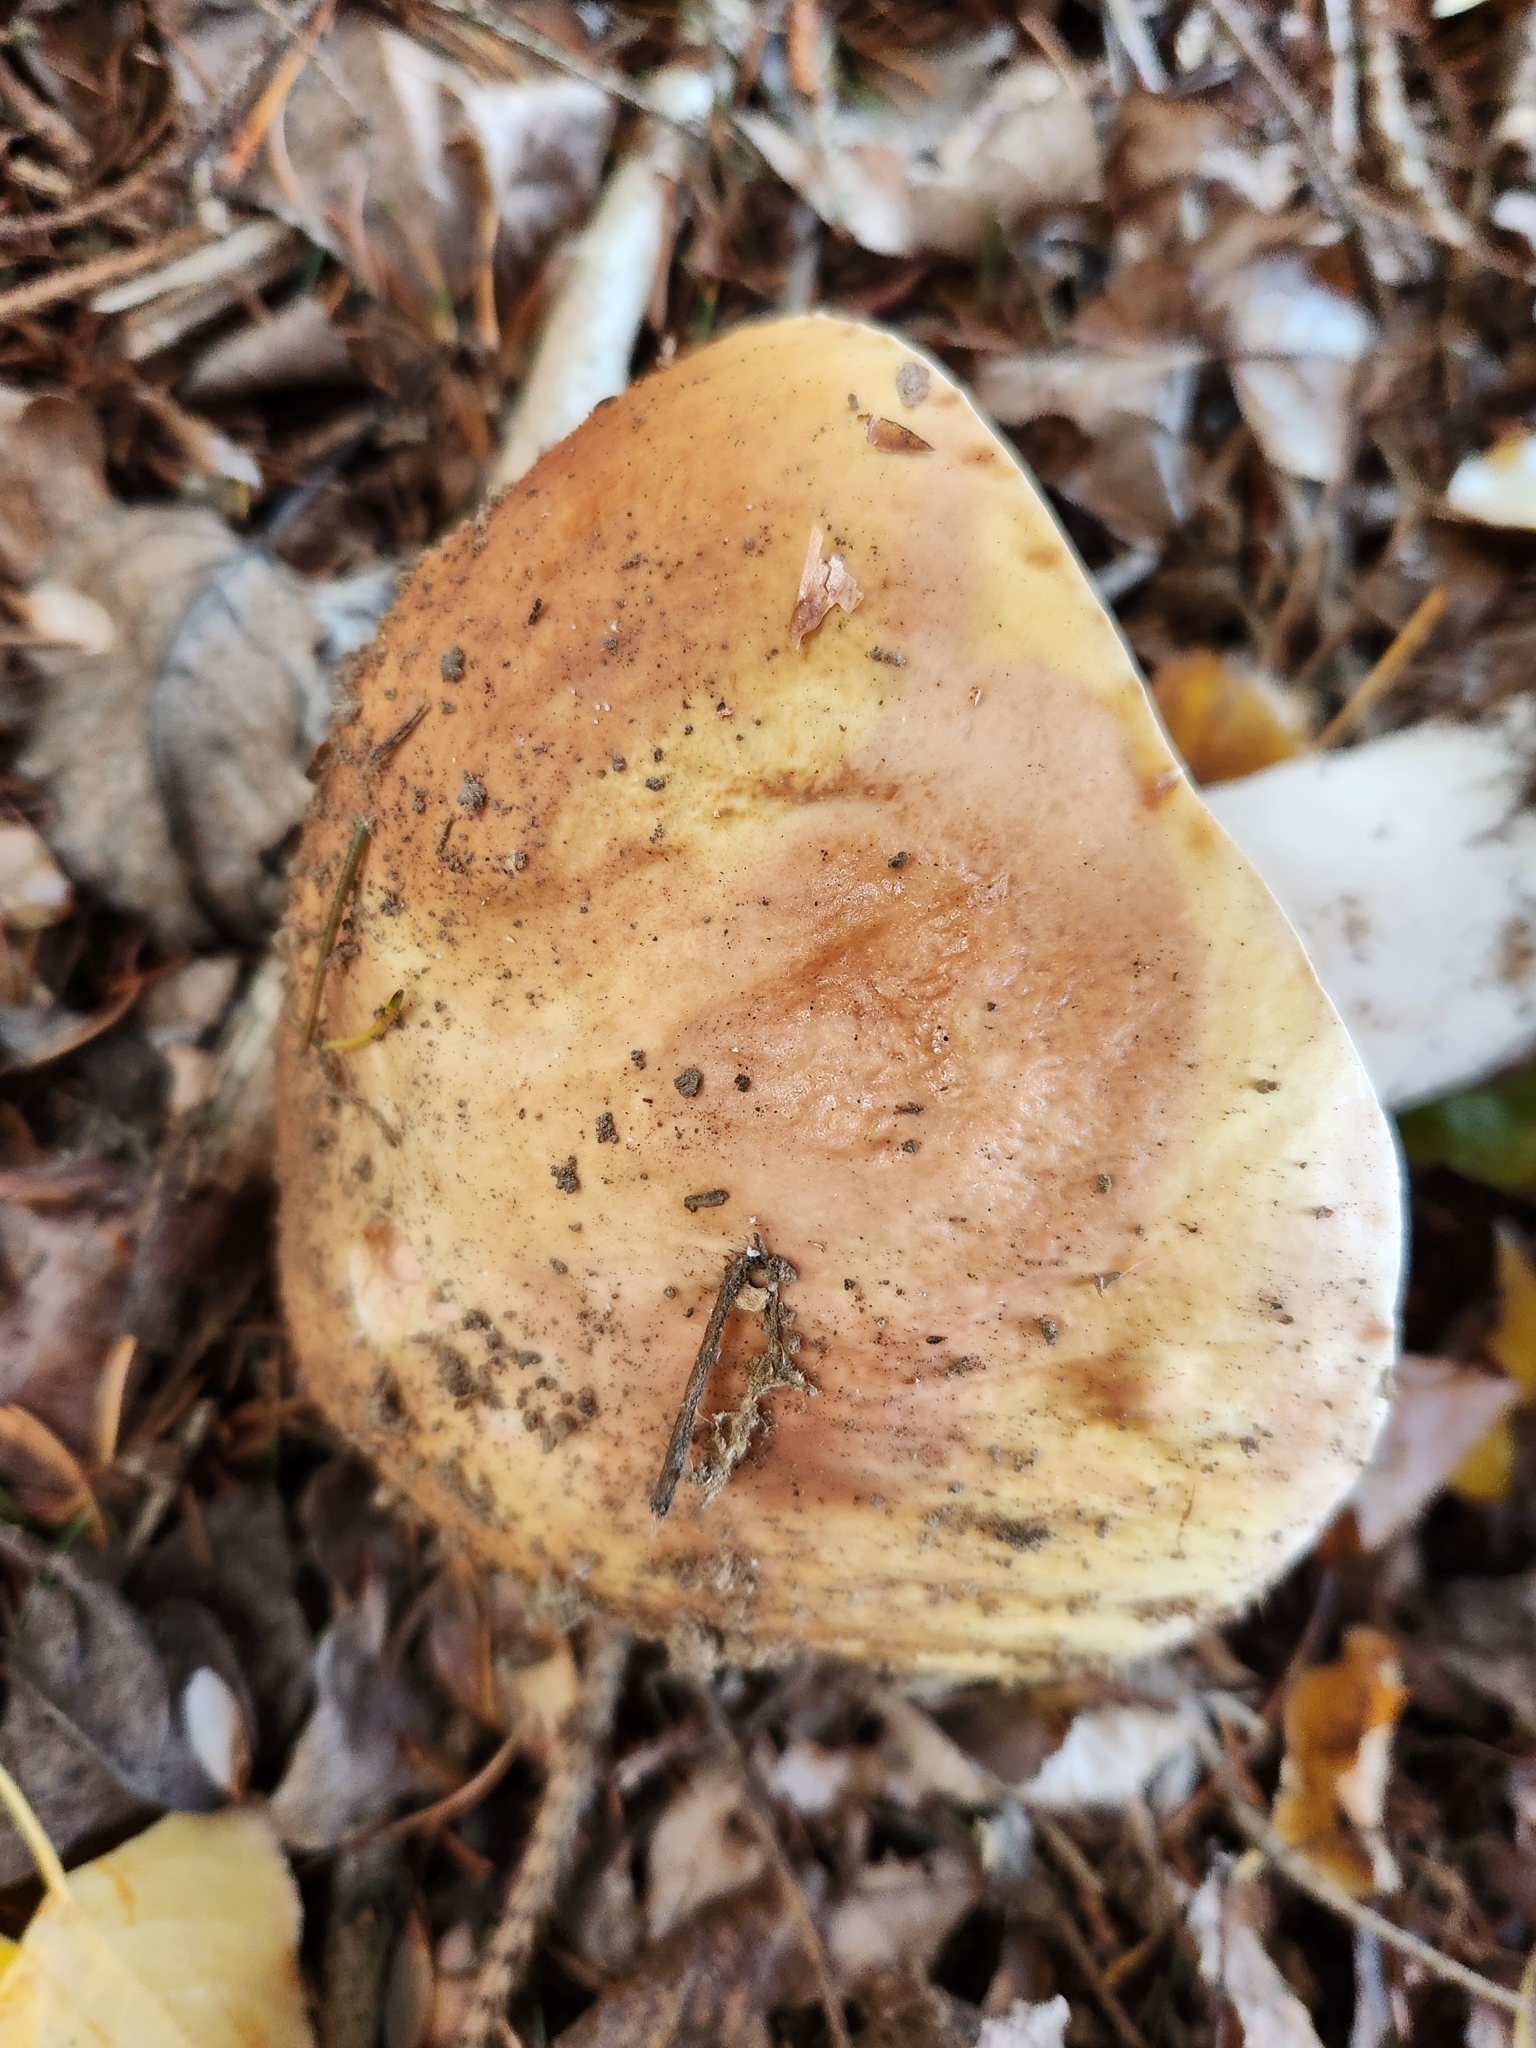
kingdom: Fungi
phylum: Basidiomycota
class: Agaricomycetes
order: Boletales
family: Boletaceae
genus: Boletus
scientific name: Boletus edulis
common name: Cep
